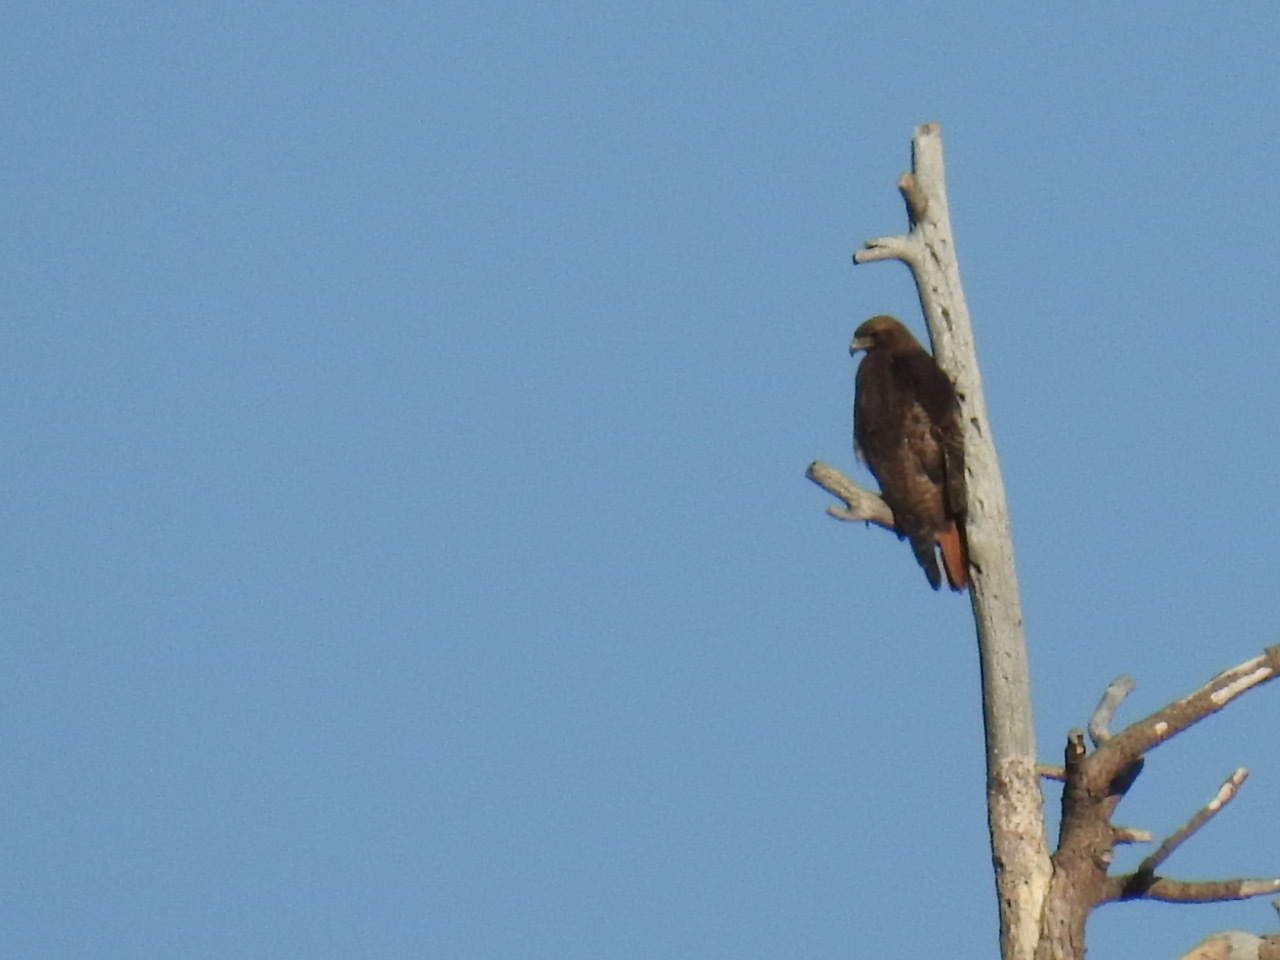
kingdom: Animalia
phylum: Chordata
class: Aves
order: Accipitriformes
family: Accipitridae
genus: Buteo
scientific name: Buteo jamaicensis
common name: Red-tailed hawk
